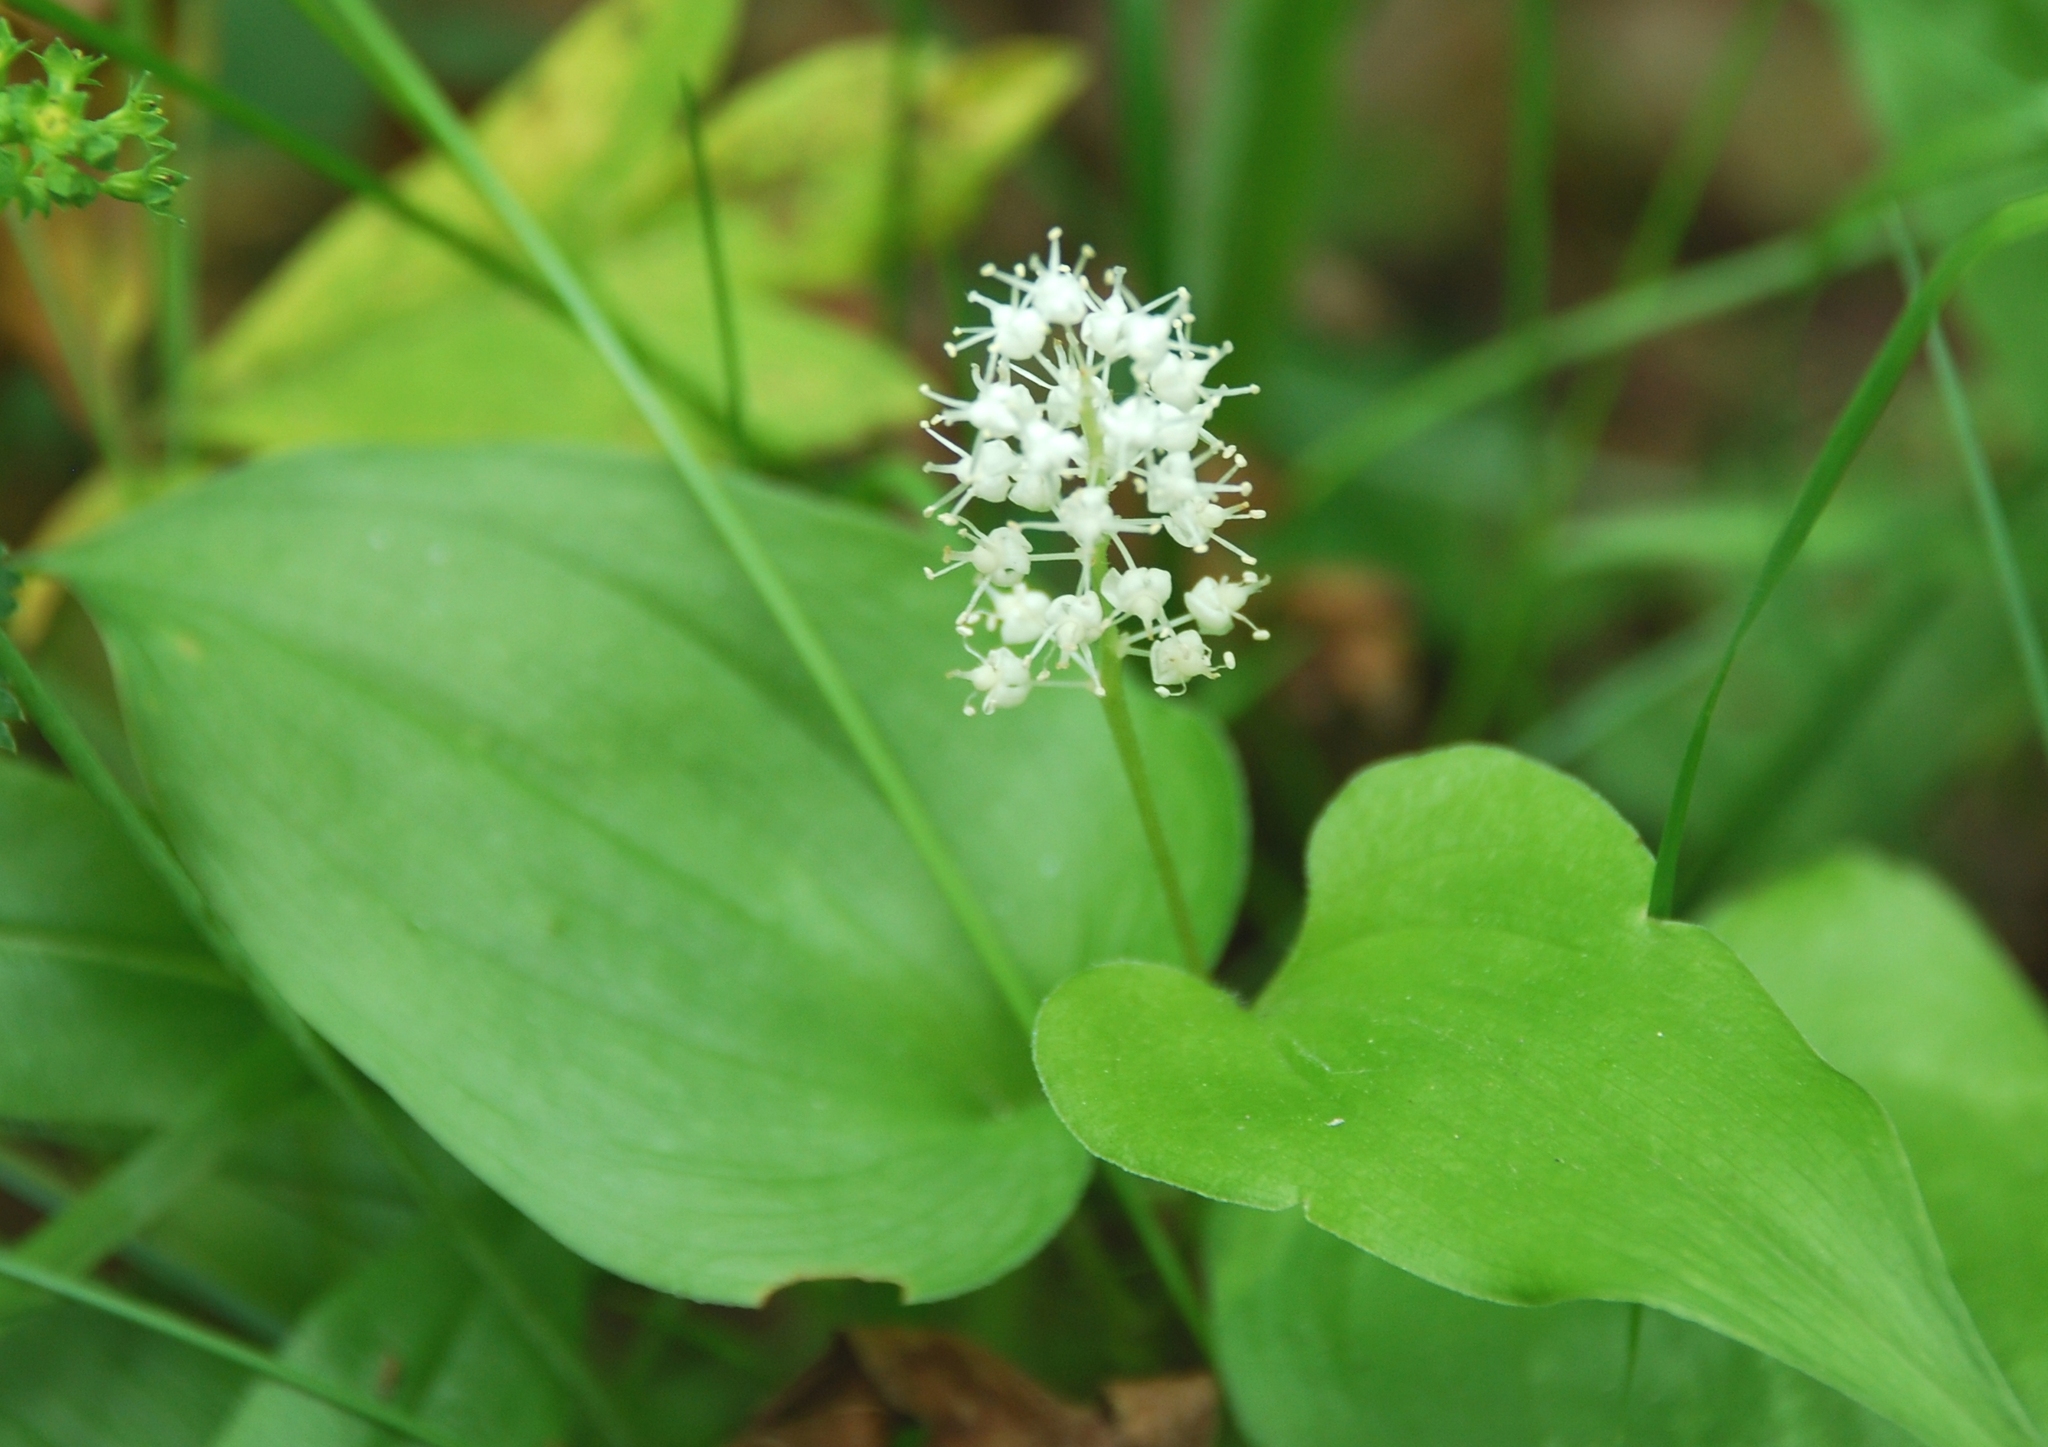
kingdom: Plantae
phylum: Tracheophyta
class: Liliopsida
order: Asparagales
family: Asparagaceae
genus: Maianthemum
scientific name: Maianthemum bifolium
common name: May lily
